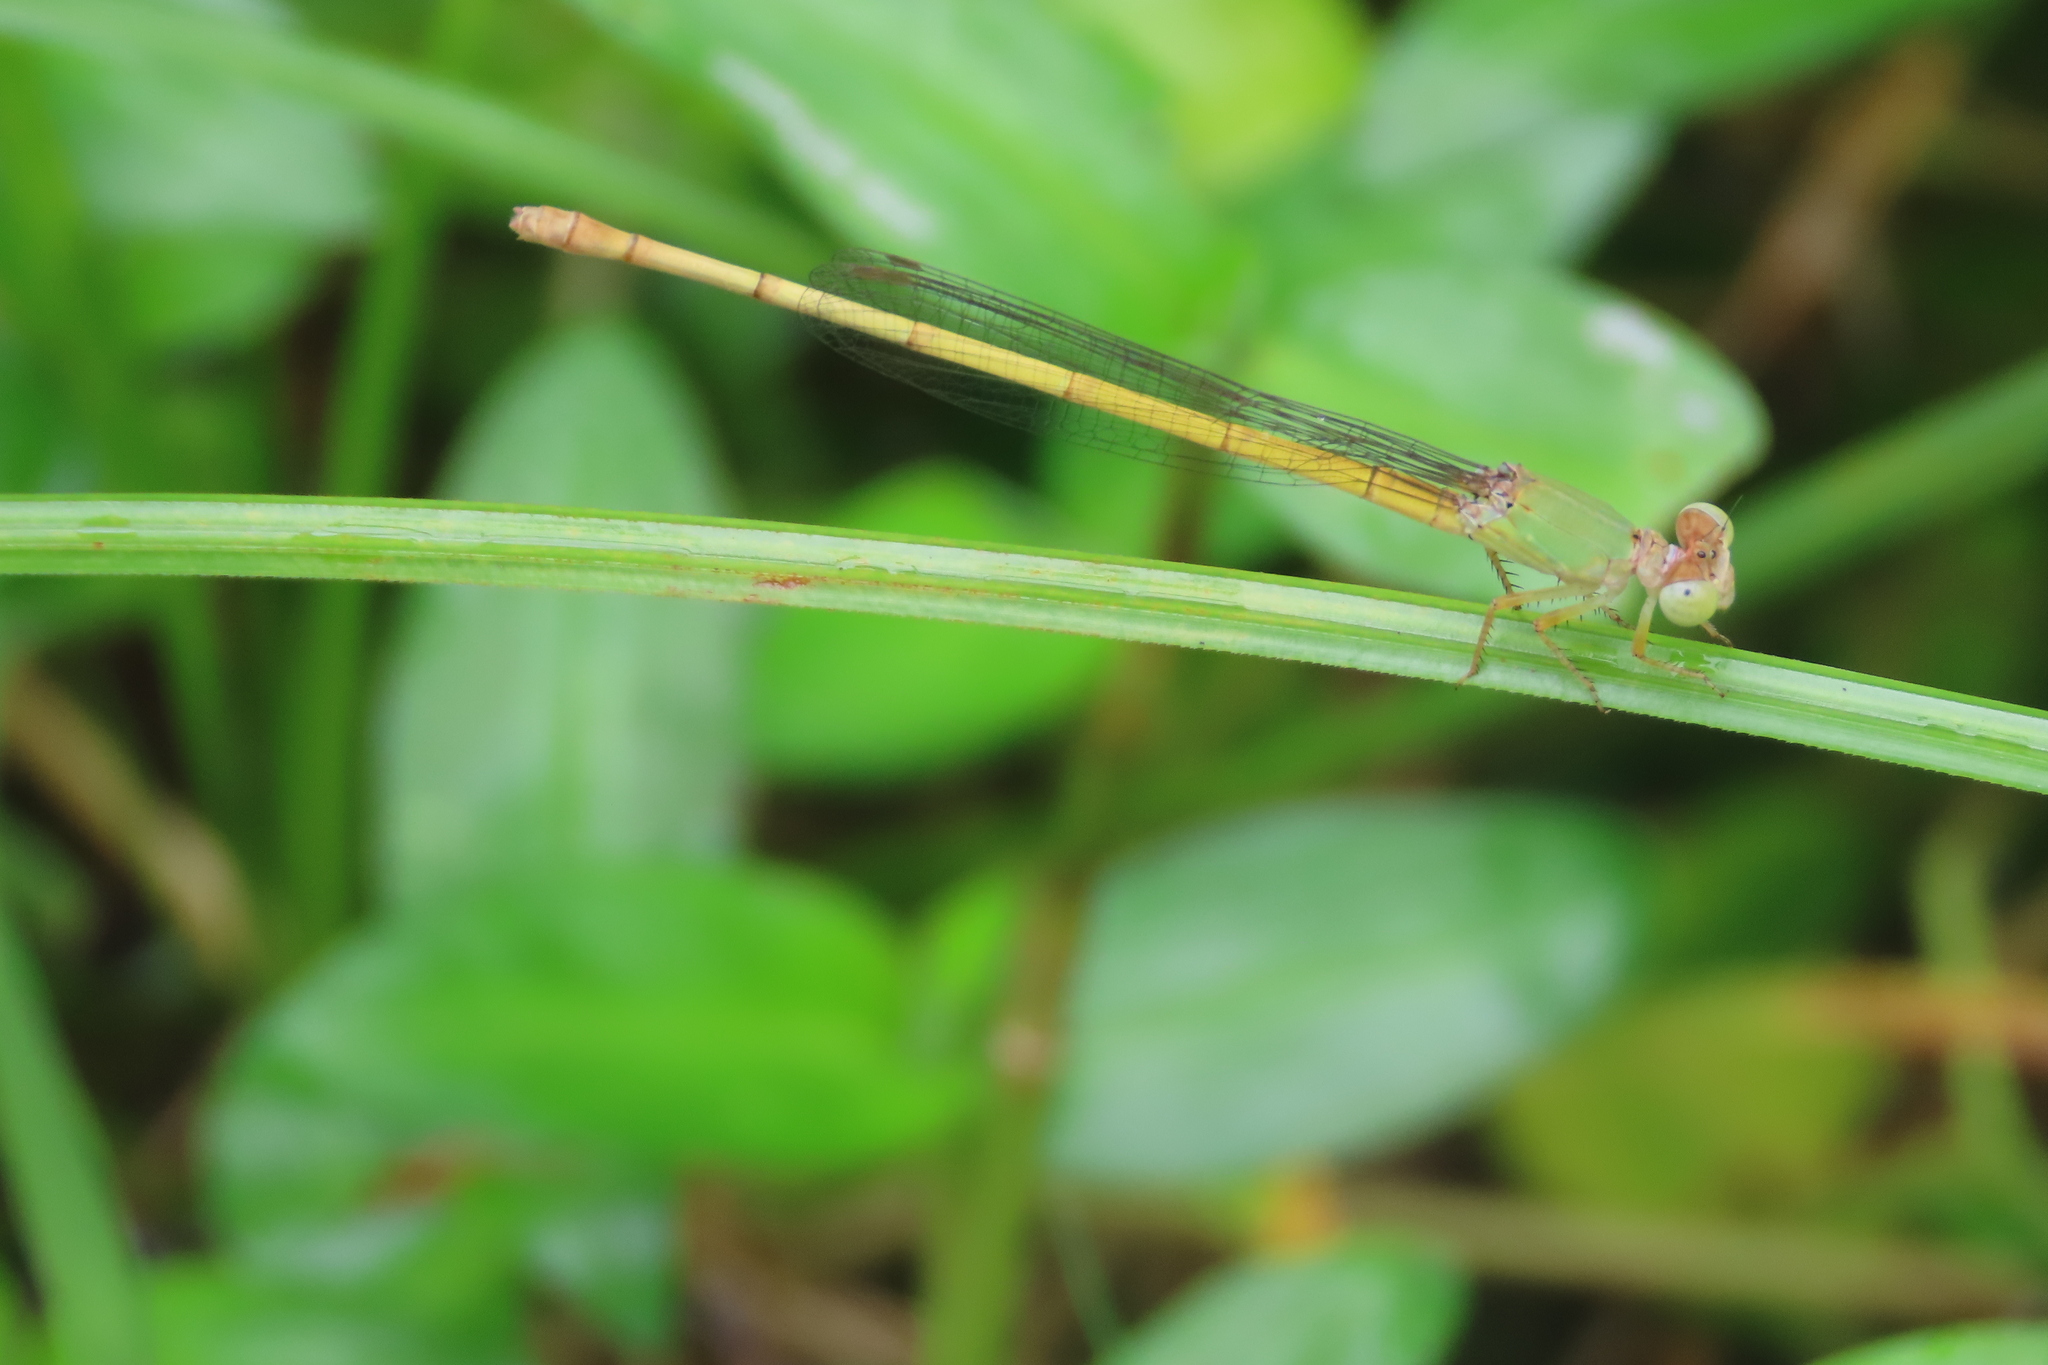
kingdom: Animalia
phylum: Arthropoda
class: Insecta
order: Odonata
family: Coenagrionidae
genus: Ceriagrion
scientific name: Ceriagrion coromandelianum
